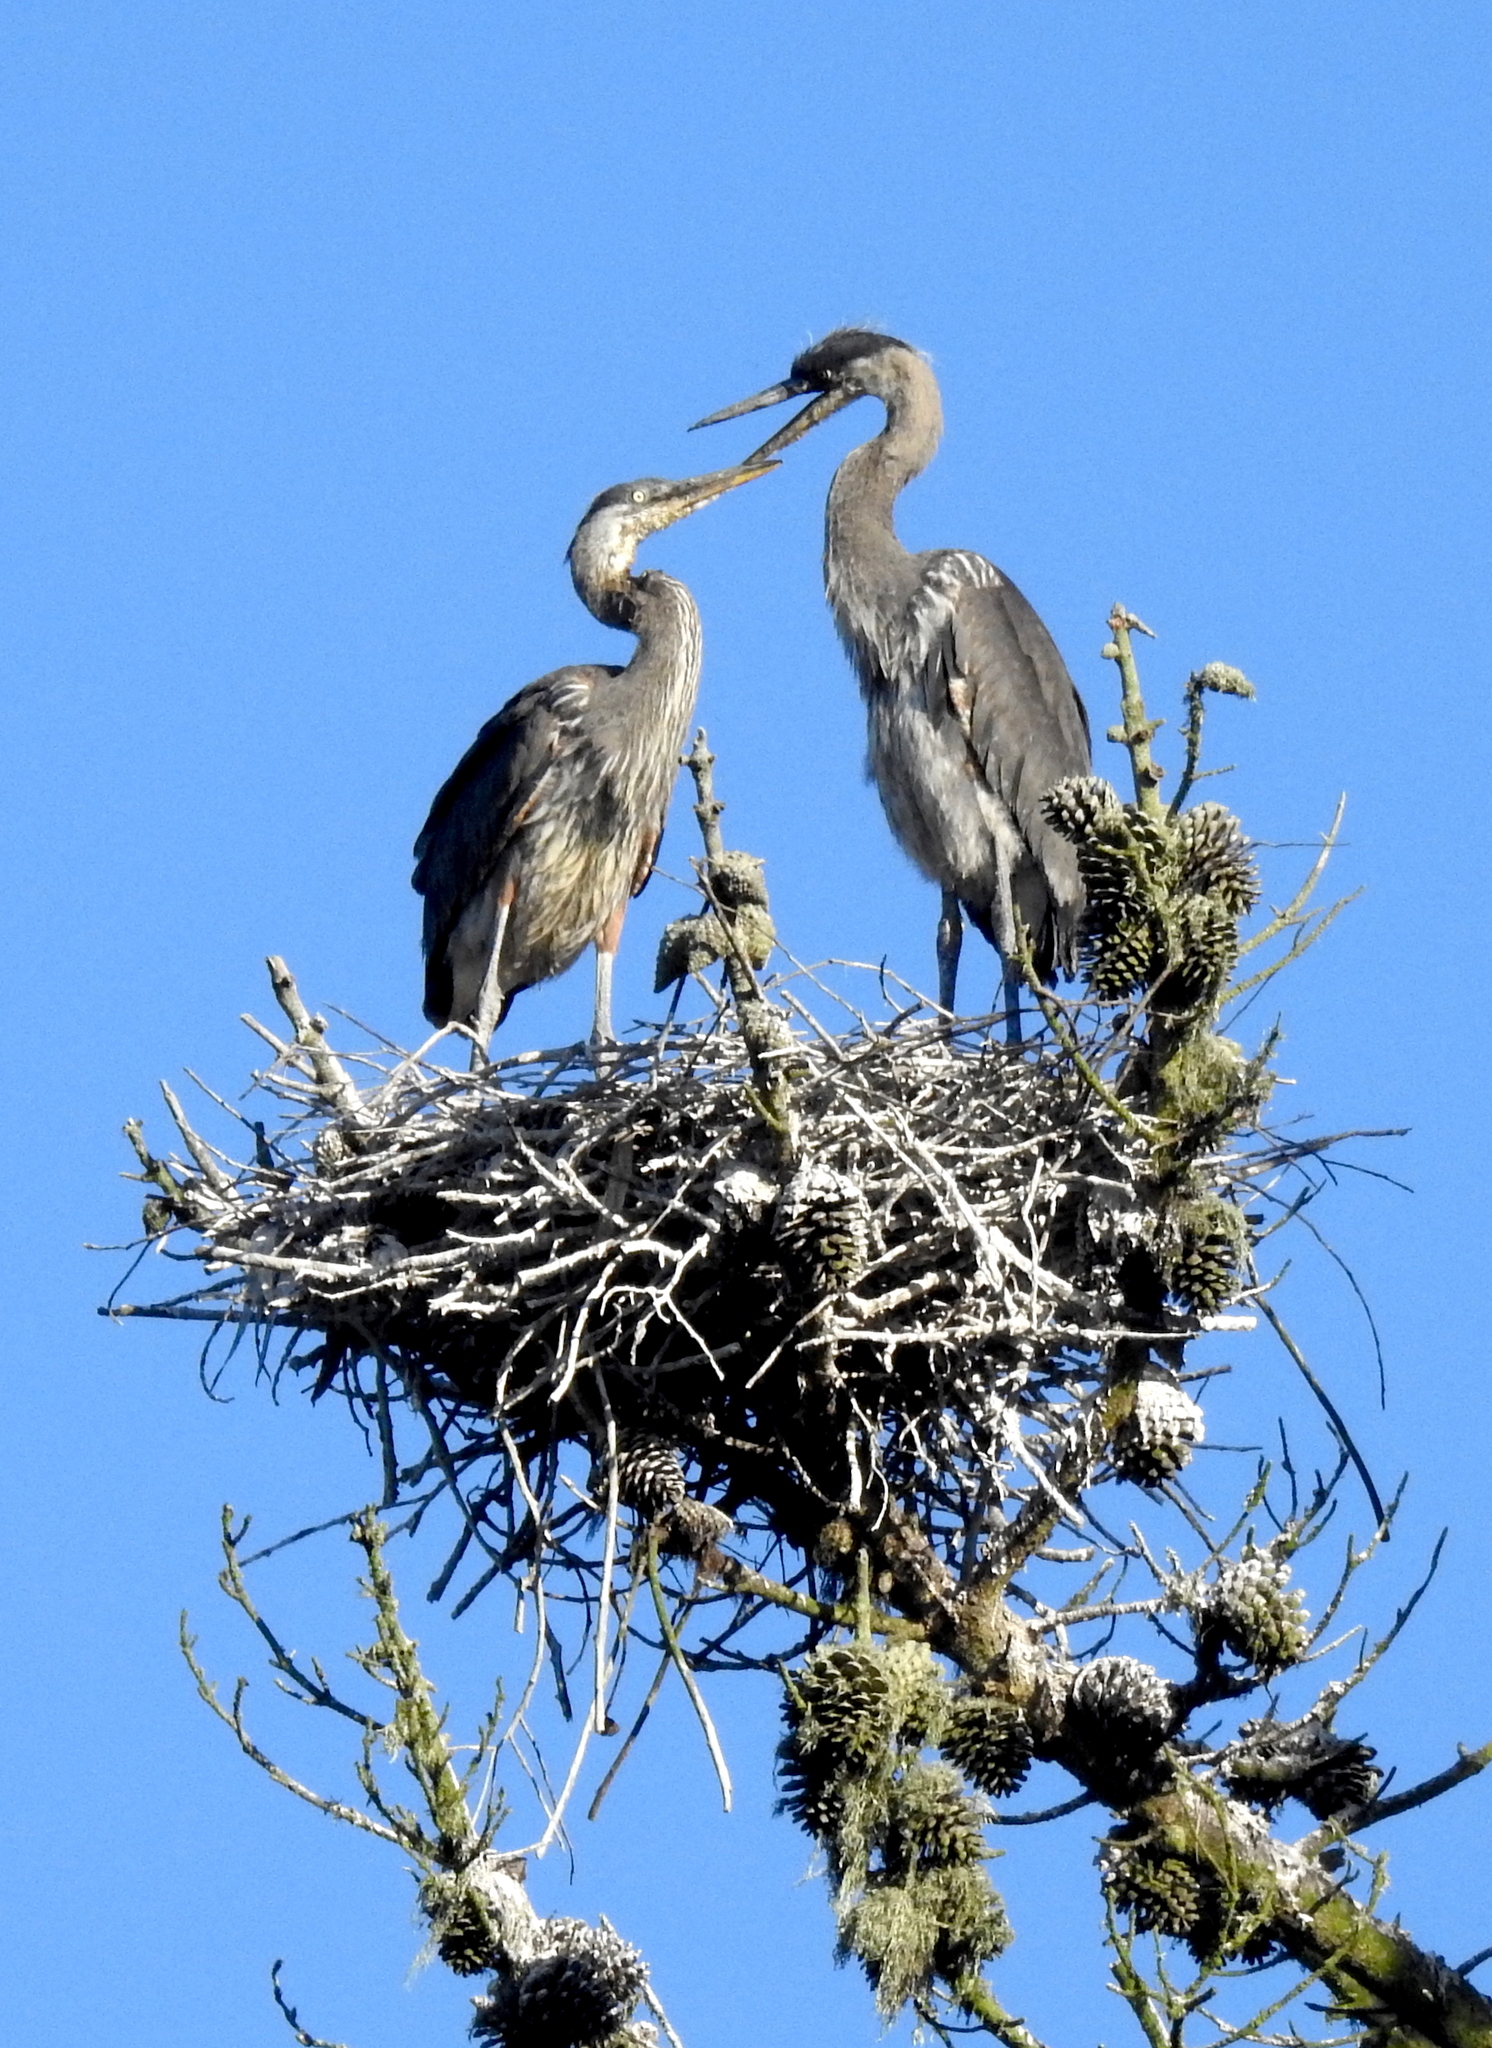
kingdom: Animalia
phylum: Chordata
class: Aves
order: Pelecaniformes
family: Ardeidae
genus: Ardea
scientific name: Ardea herodias
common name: Great blue heron
